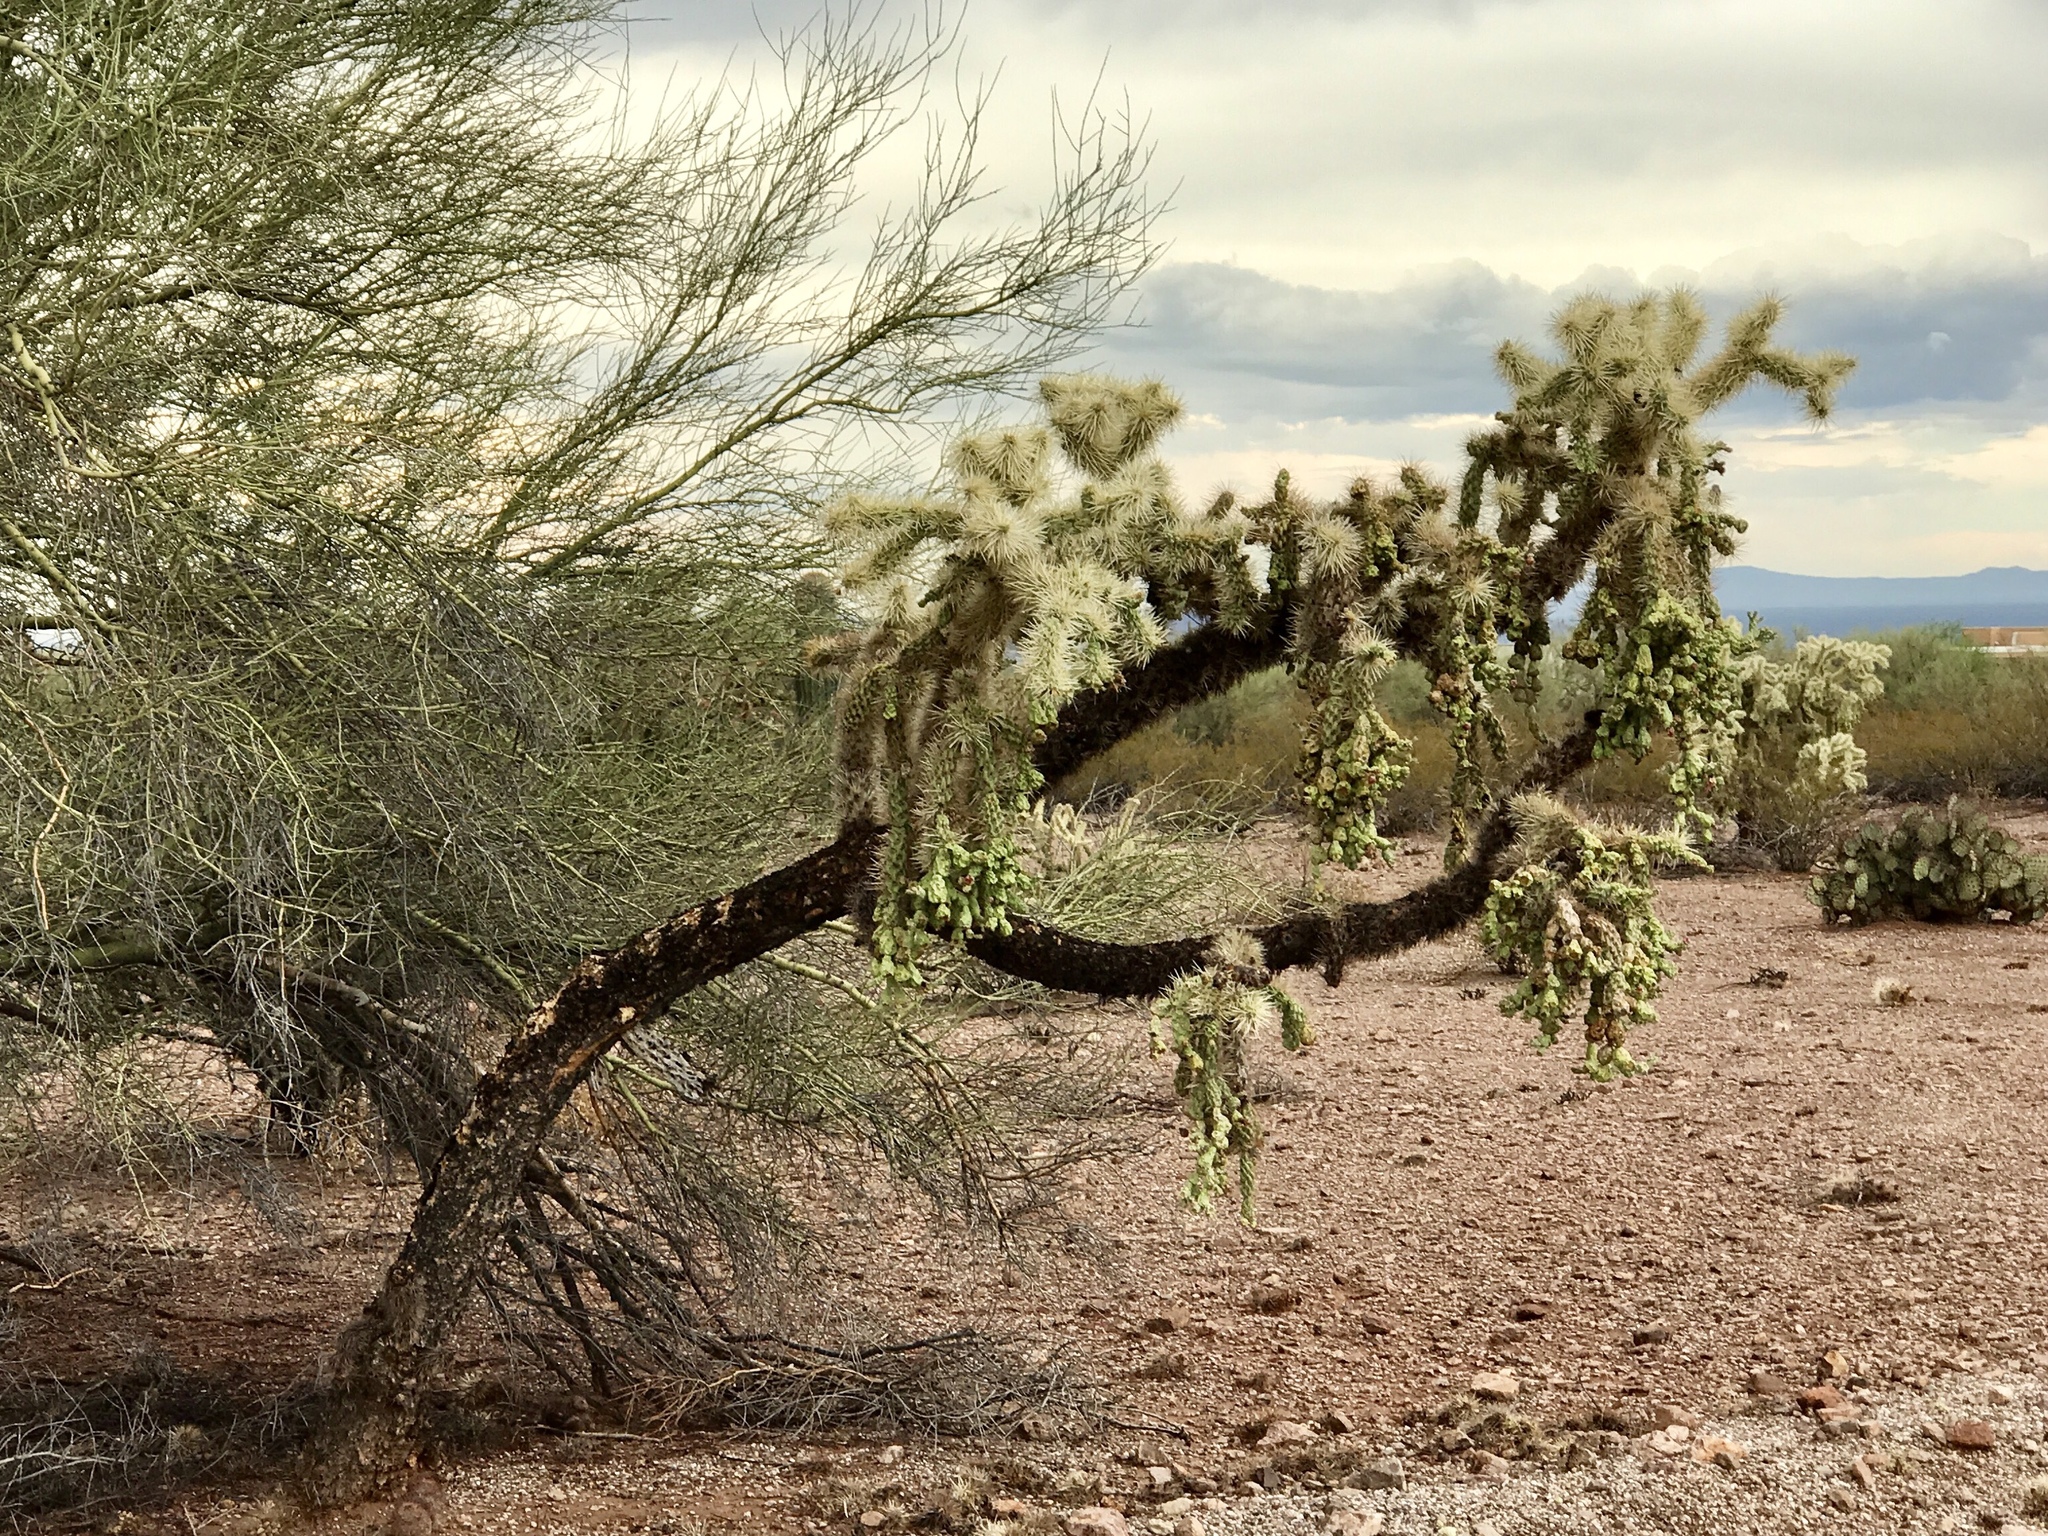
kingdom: Plantae
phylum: Tracheophyta
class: Magnoliopsida
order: Caryophyllales
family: Cactaceae
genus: Cylindropuntia
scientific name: Cylindropuntia fulgida
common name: Jumping cholla
